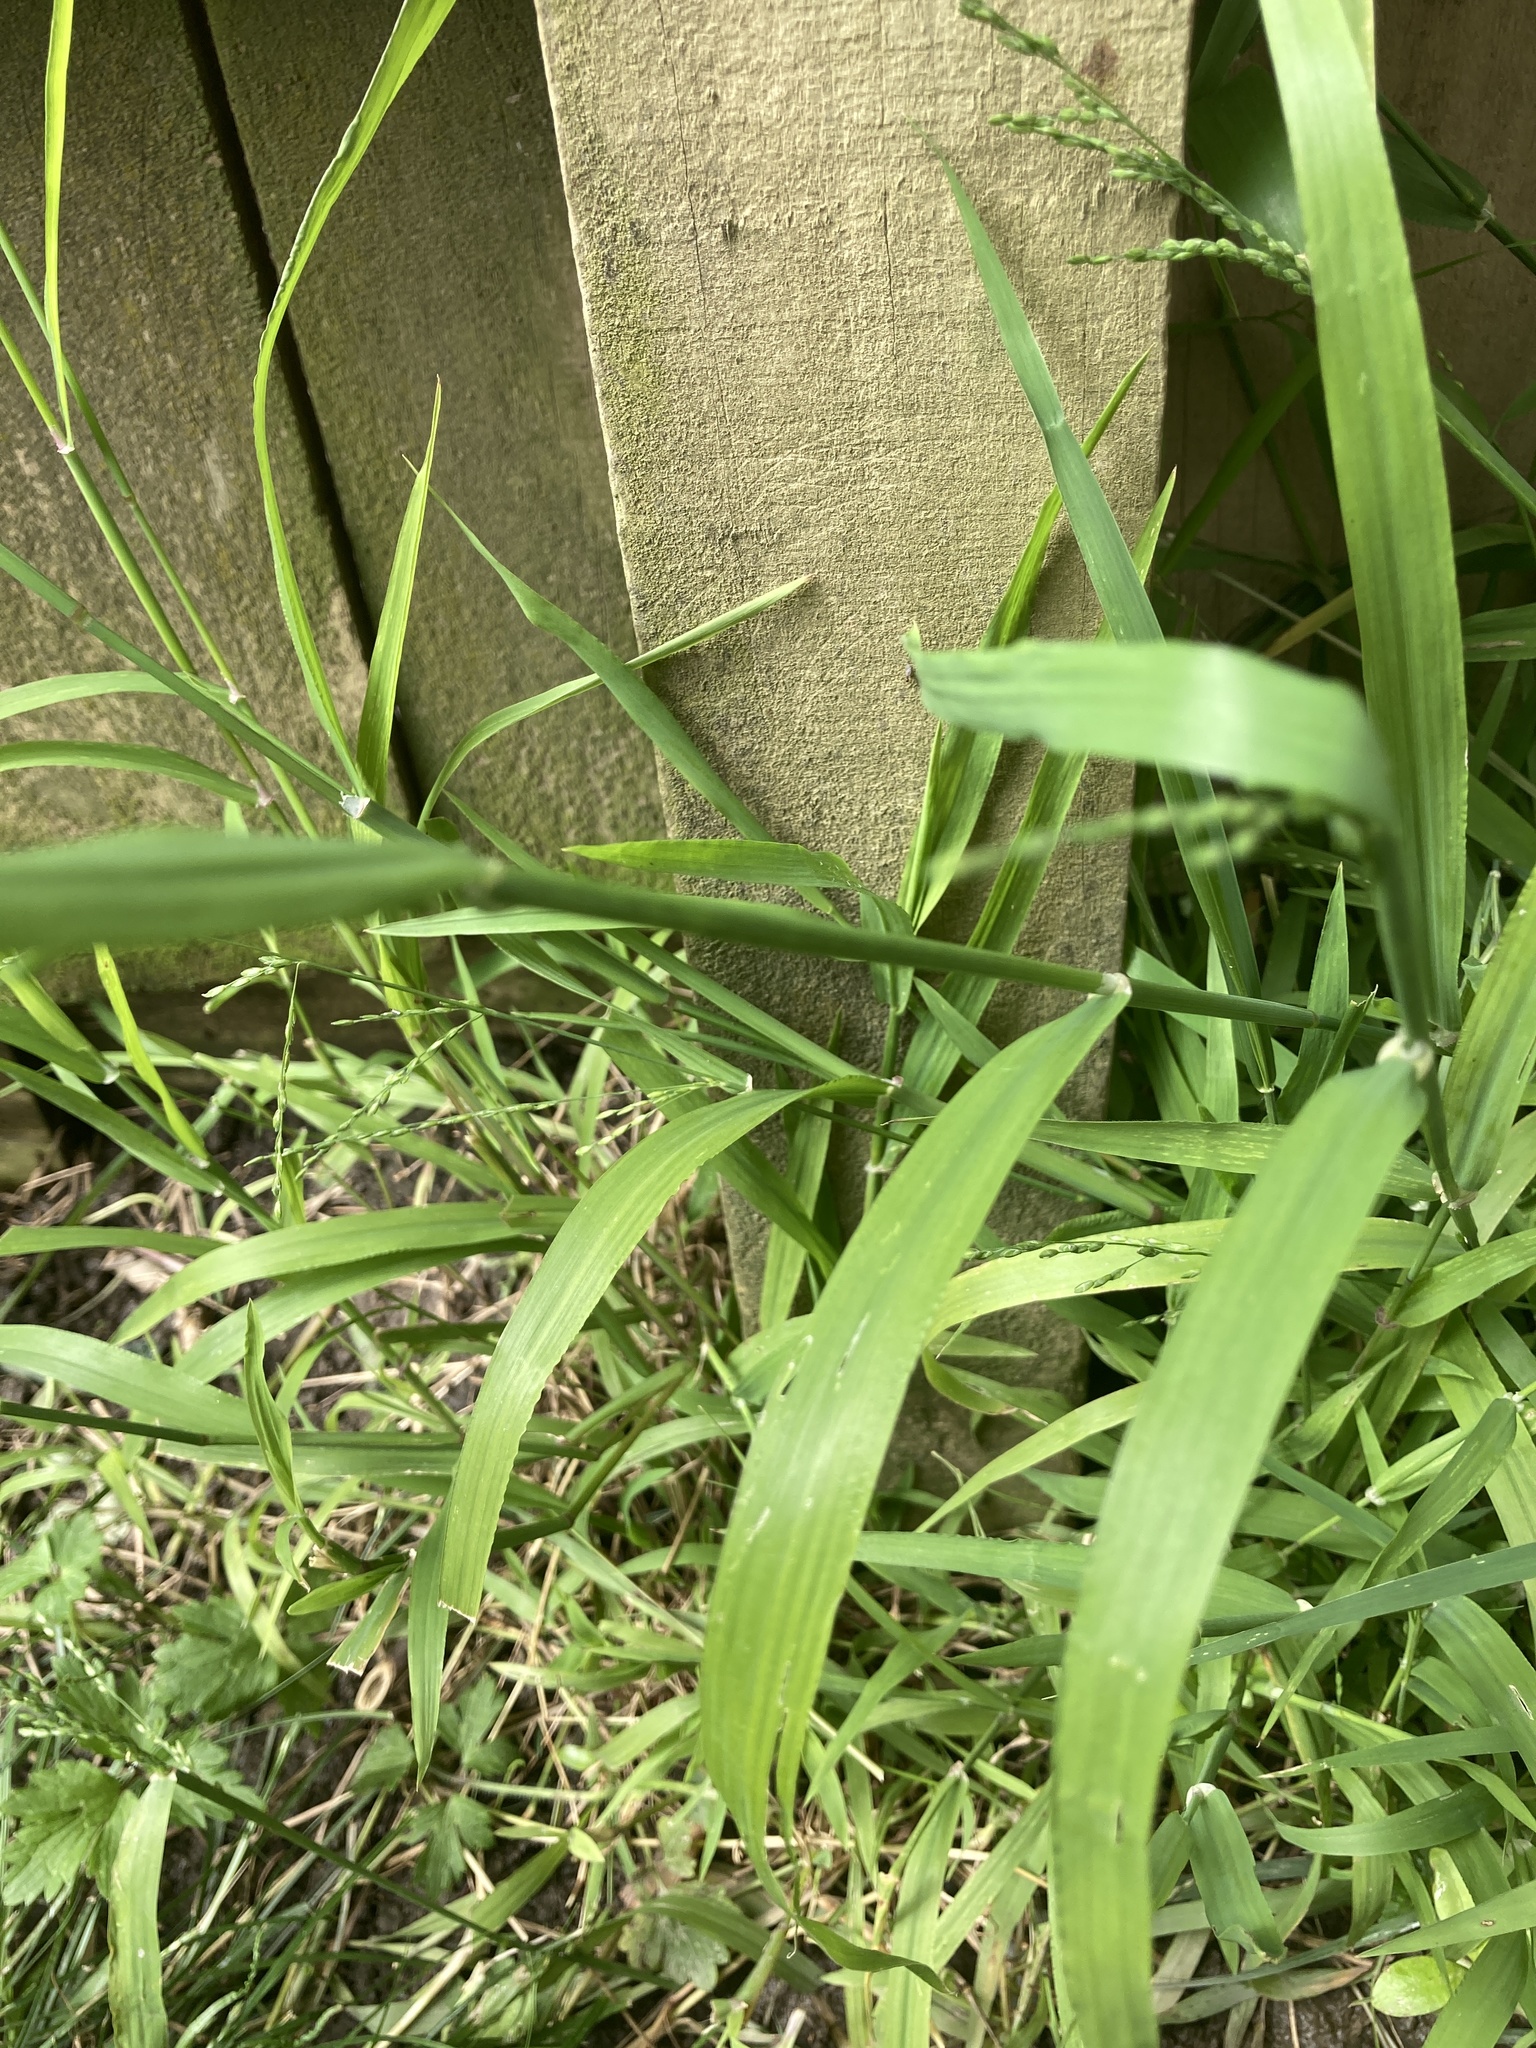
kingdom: Plantae
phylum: Tracheophyta
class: Liliopsida
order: Poales
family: Poaceae
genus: Ehrharta
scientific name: Ehrharta erecta
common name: Panic veldtgrass
